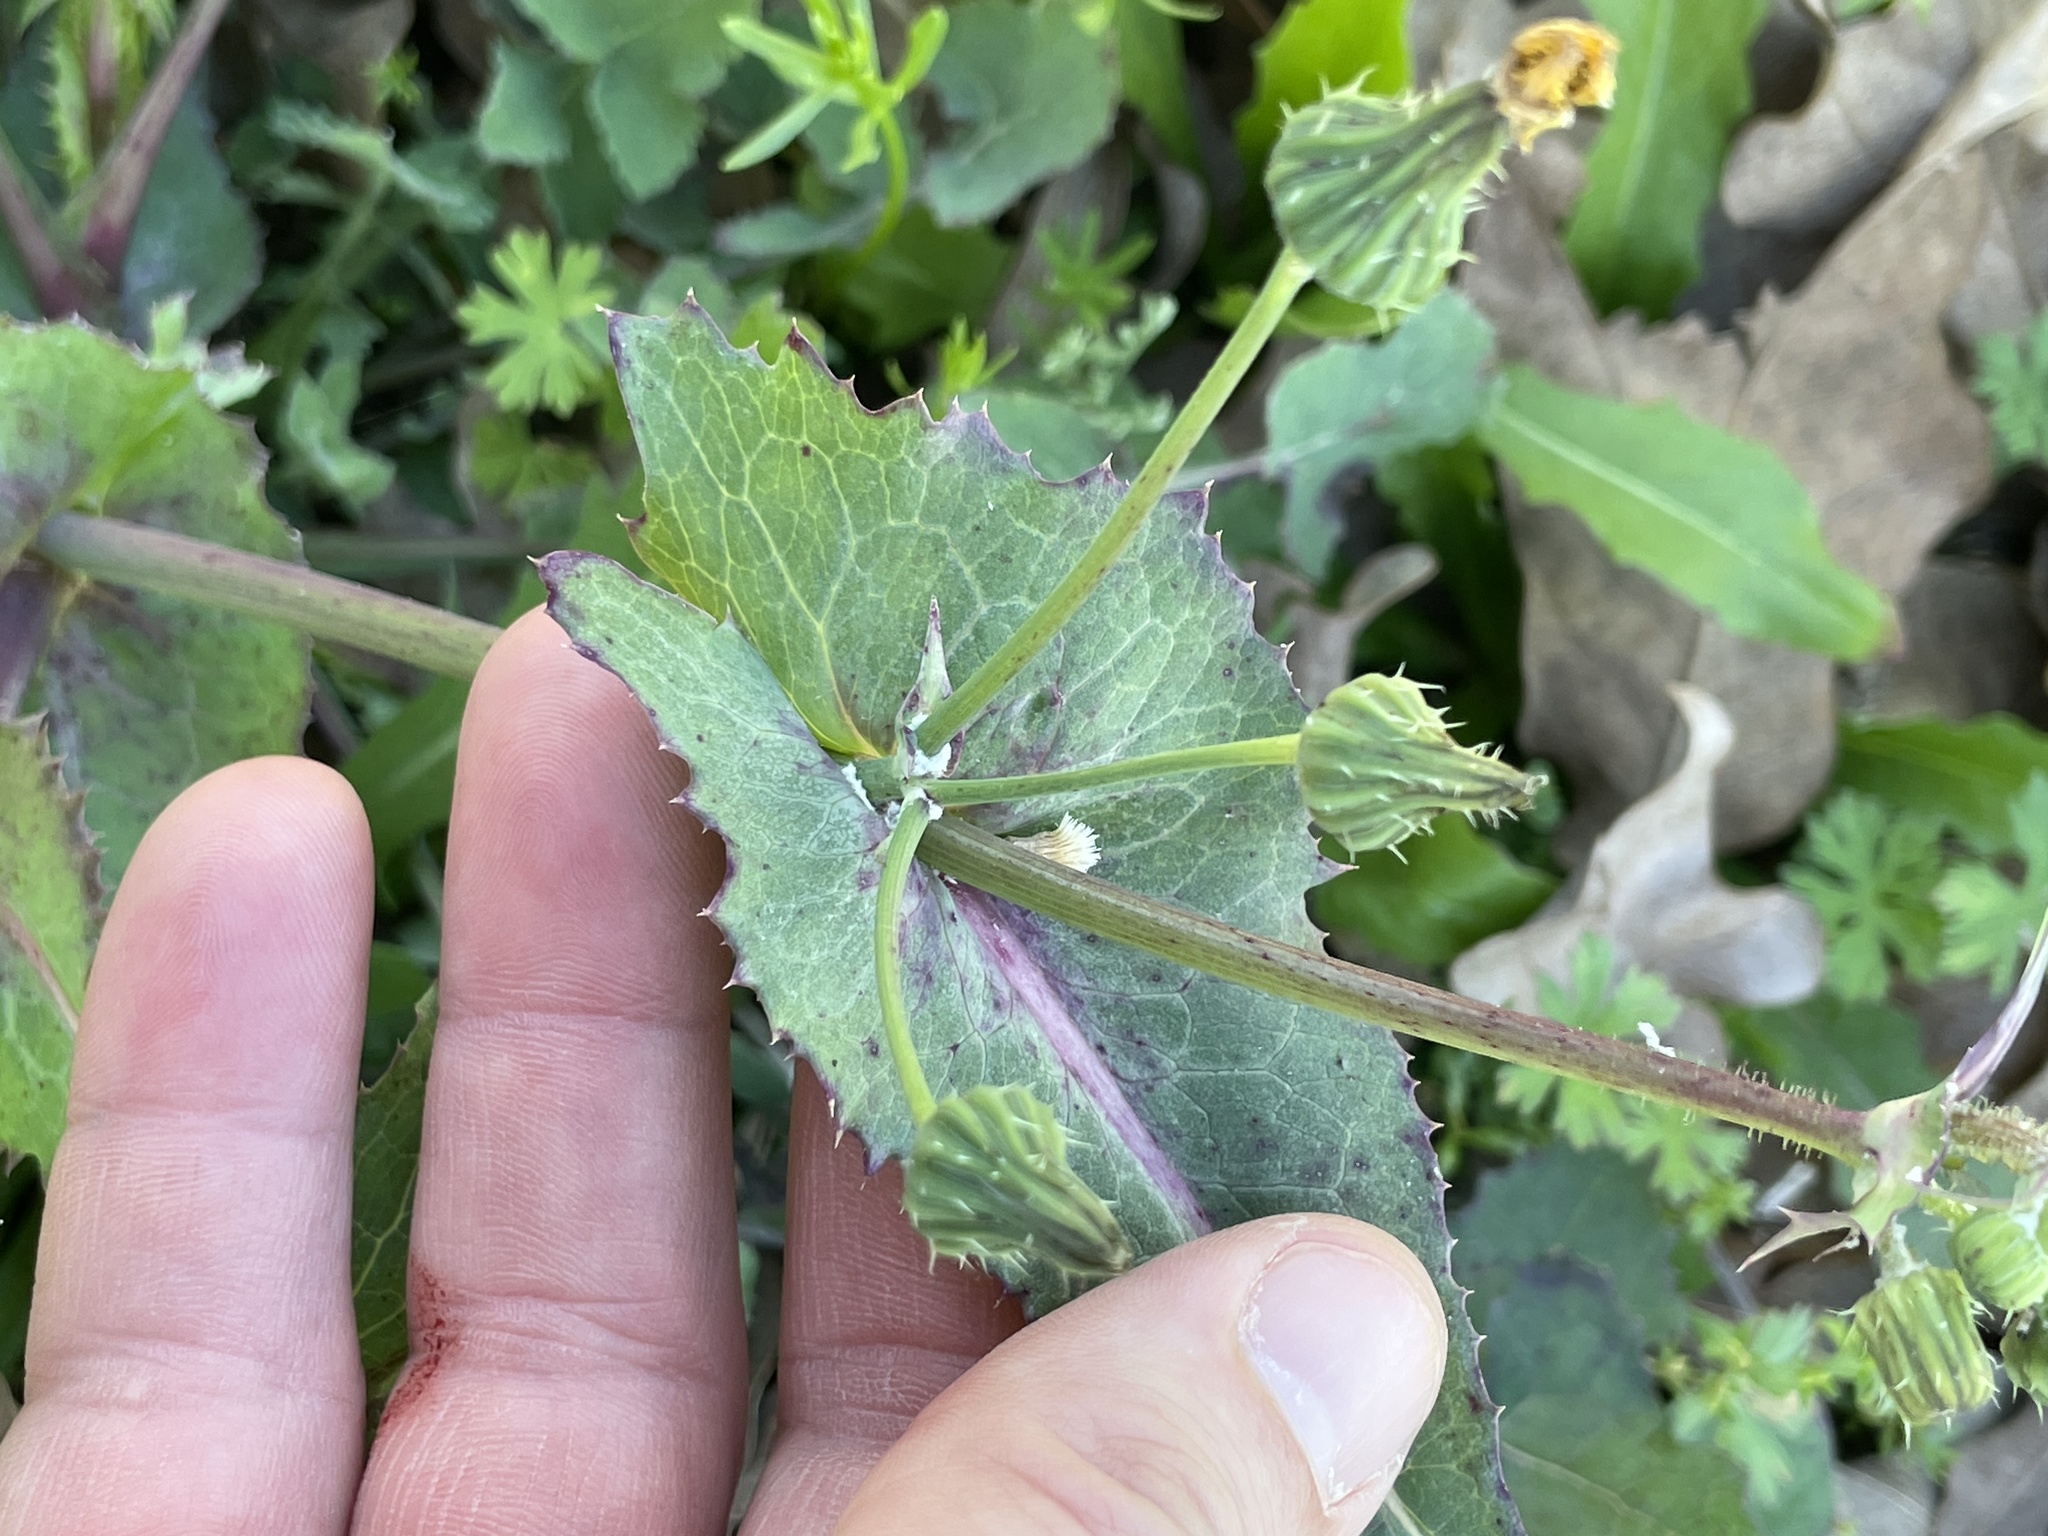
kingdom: Plantae
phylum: Tracheophyta
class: Magnoliopsida
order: Asterales
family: Asteraceae
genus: Sonchus
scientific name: Sonchus oleraceus
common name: Common sowthistle
